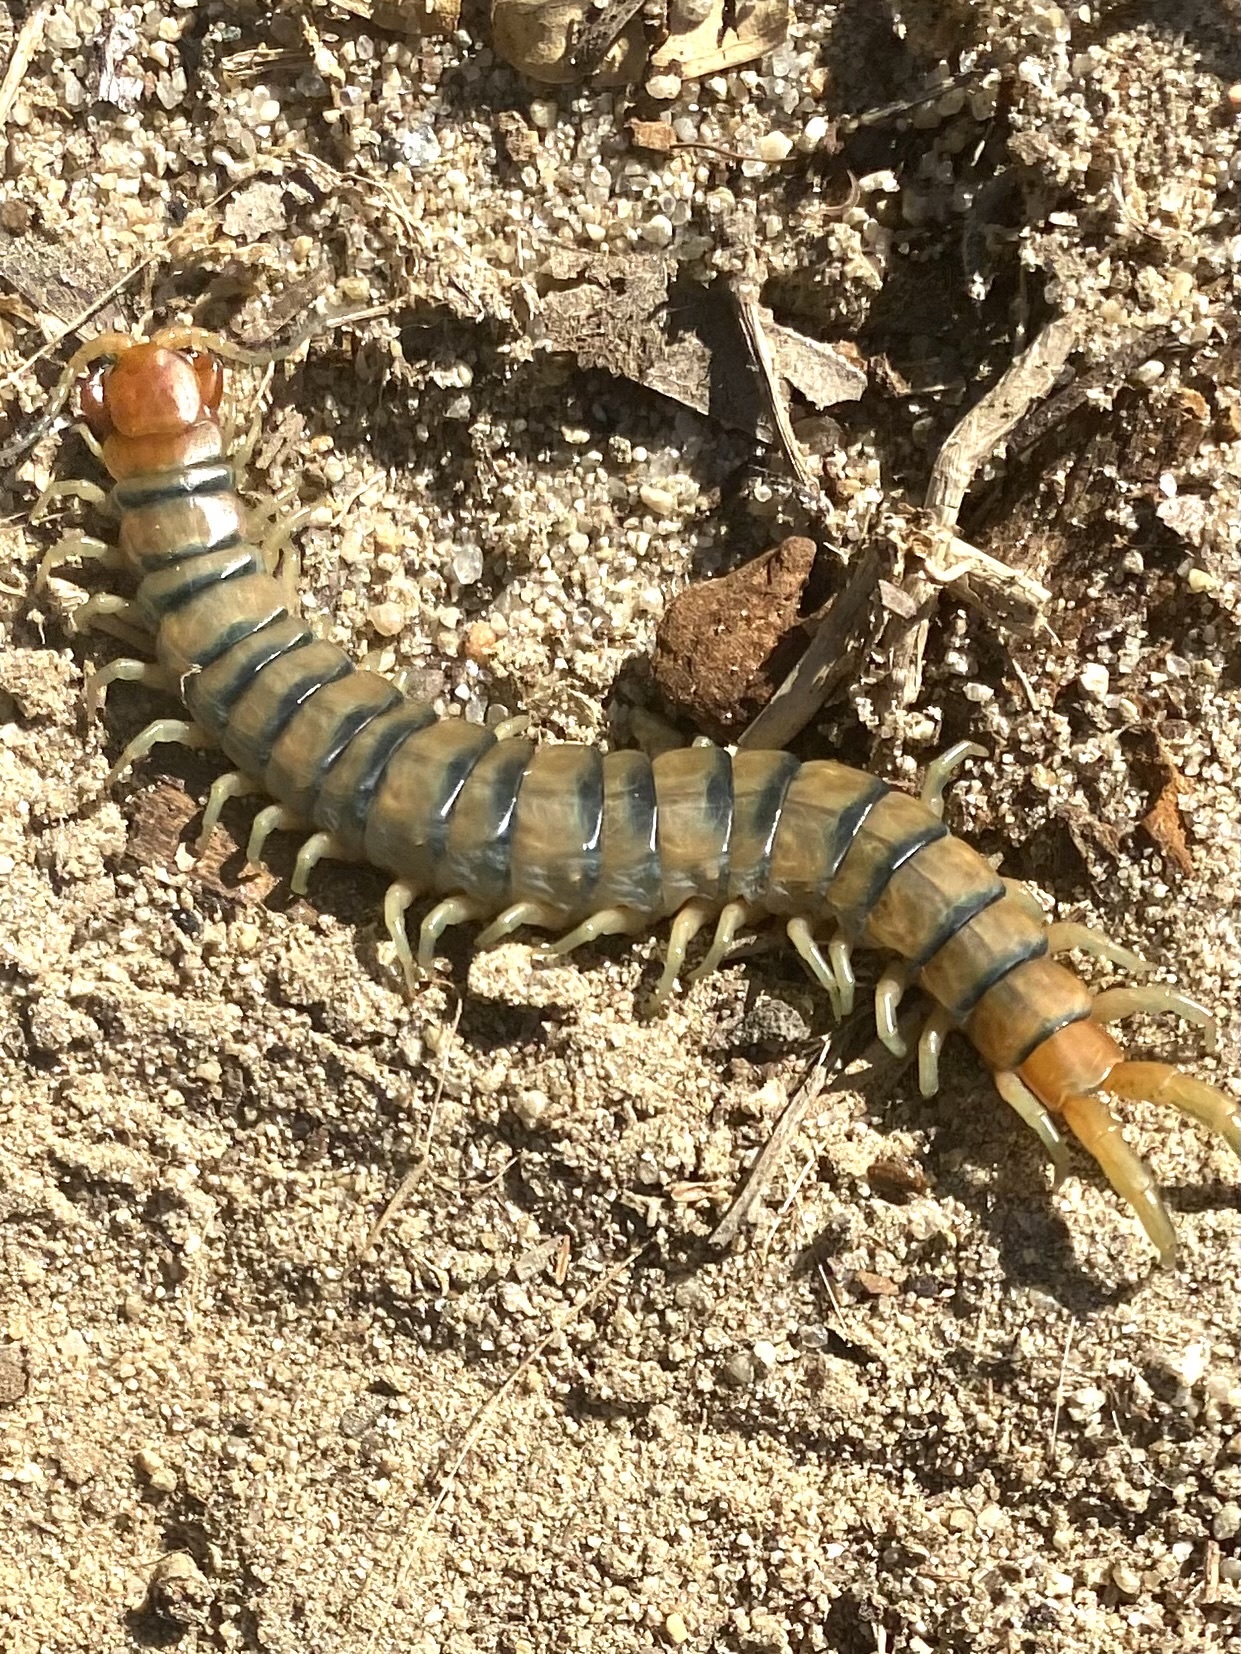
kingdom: Animalia
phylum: Arthropoda
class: Chilopoda
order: Scolopendromorpha
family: Scolopendridae
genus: Scolopendra
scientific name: Scolopendra polymorpha
